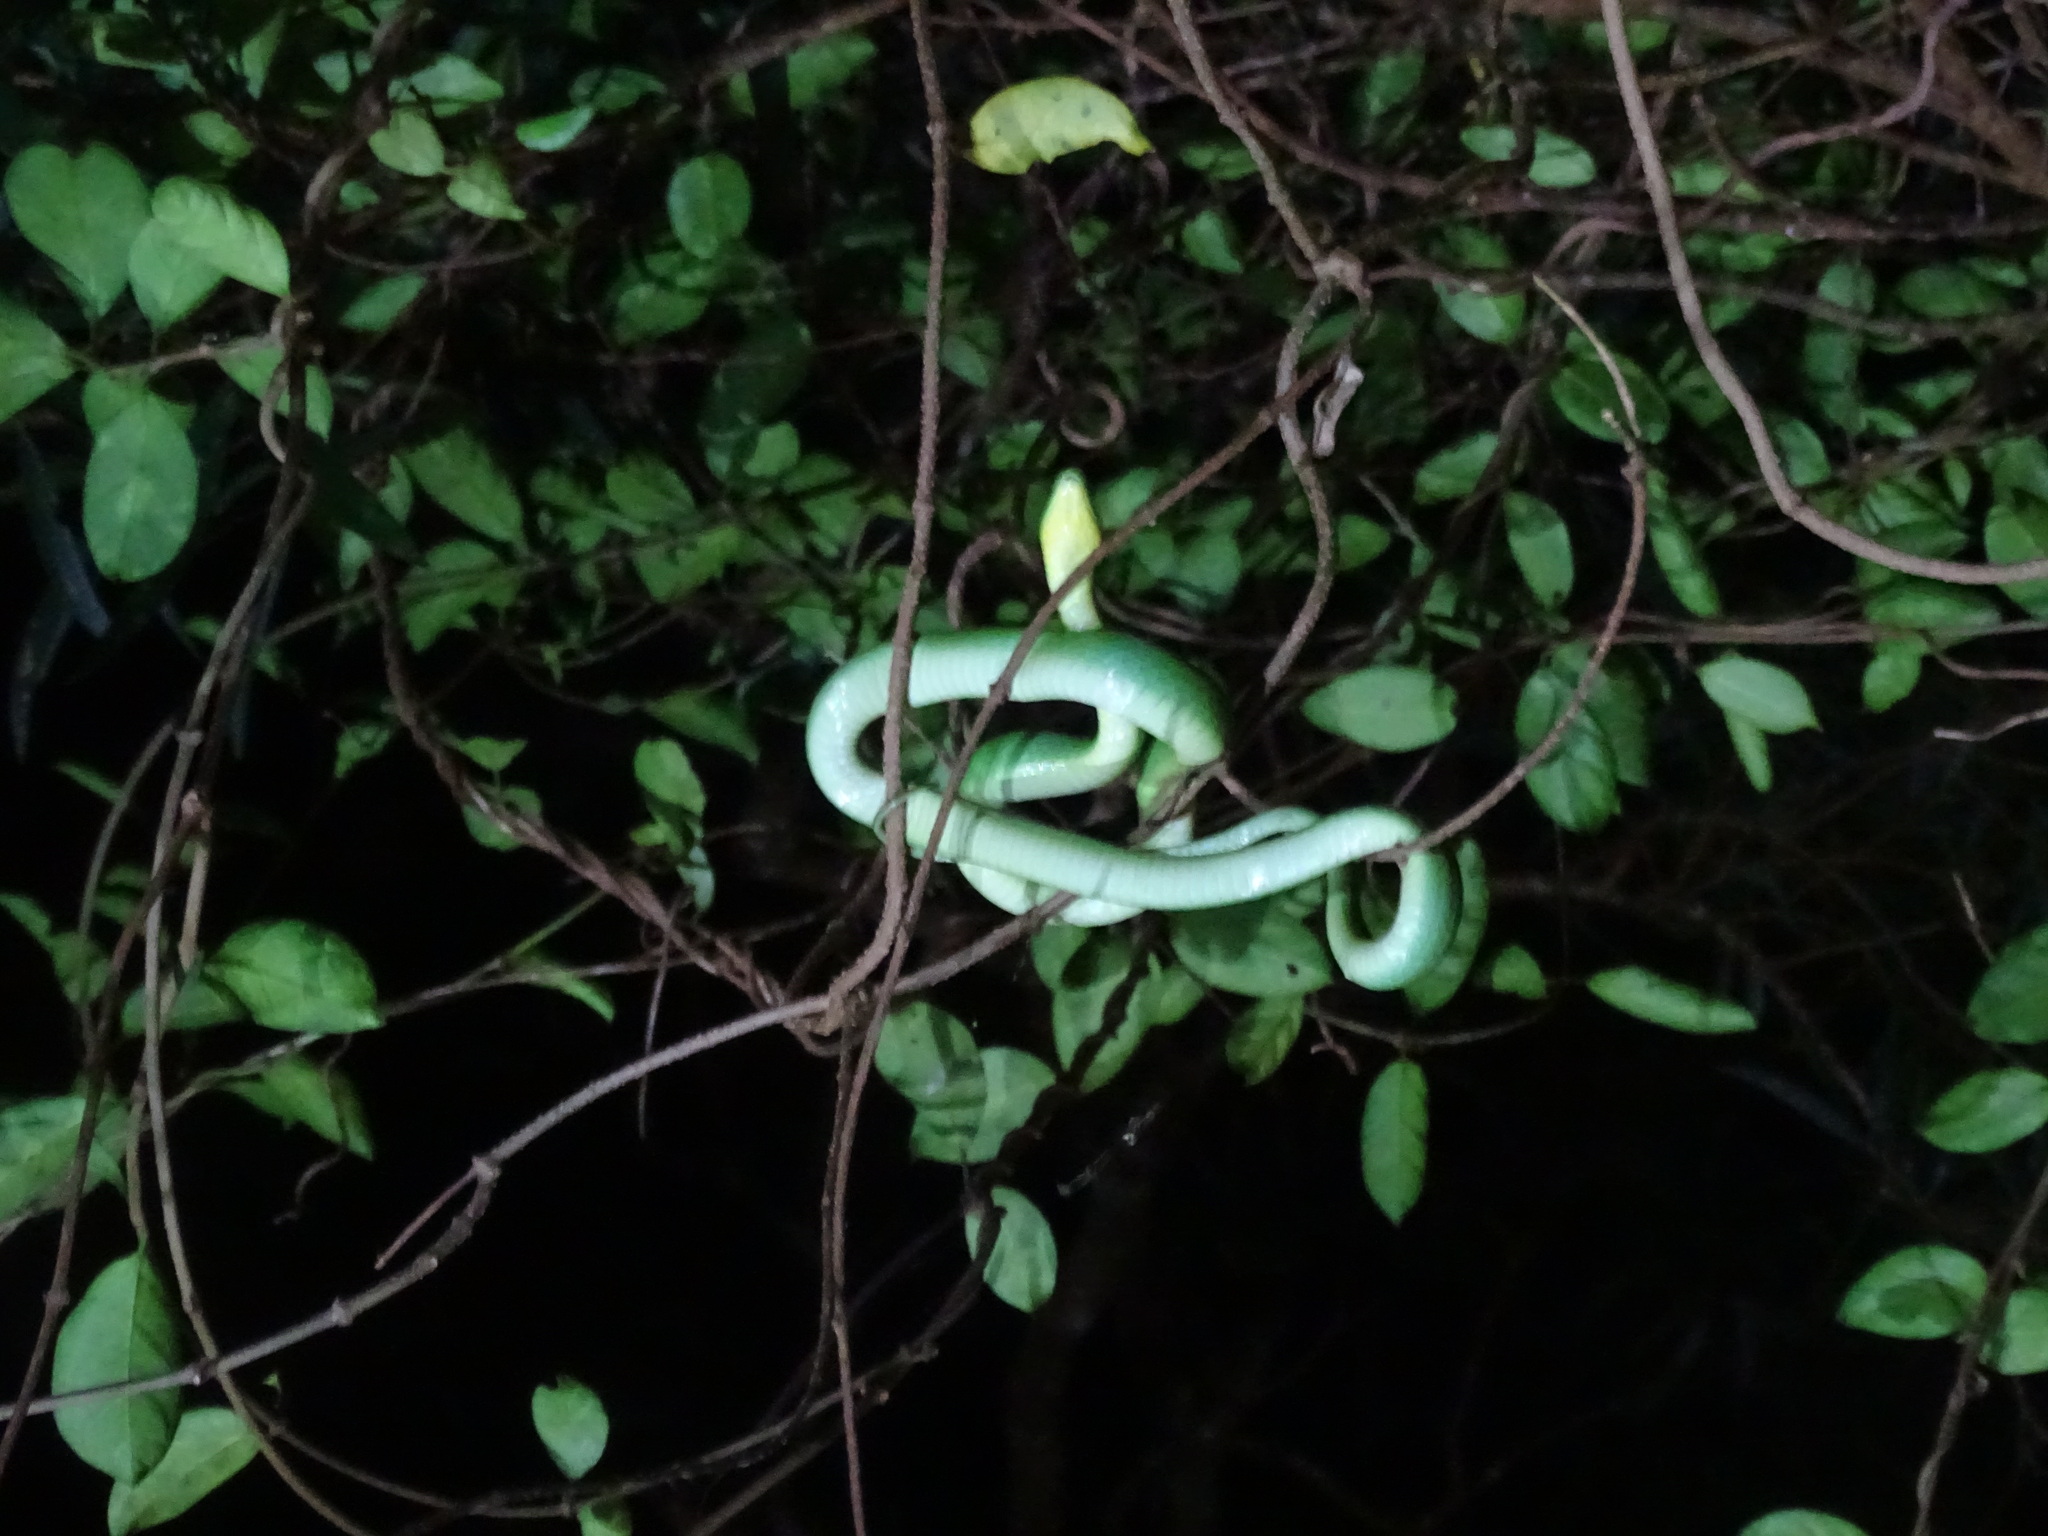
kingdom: Animalia
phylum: Chordata
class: Squamata
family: Colubridae
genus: Ptyas
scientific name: Ptyas major
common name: Chinese green snake
